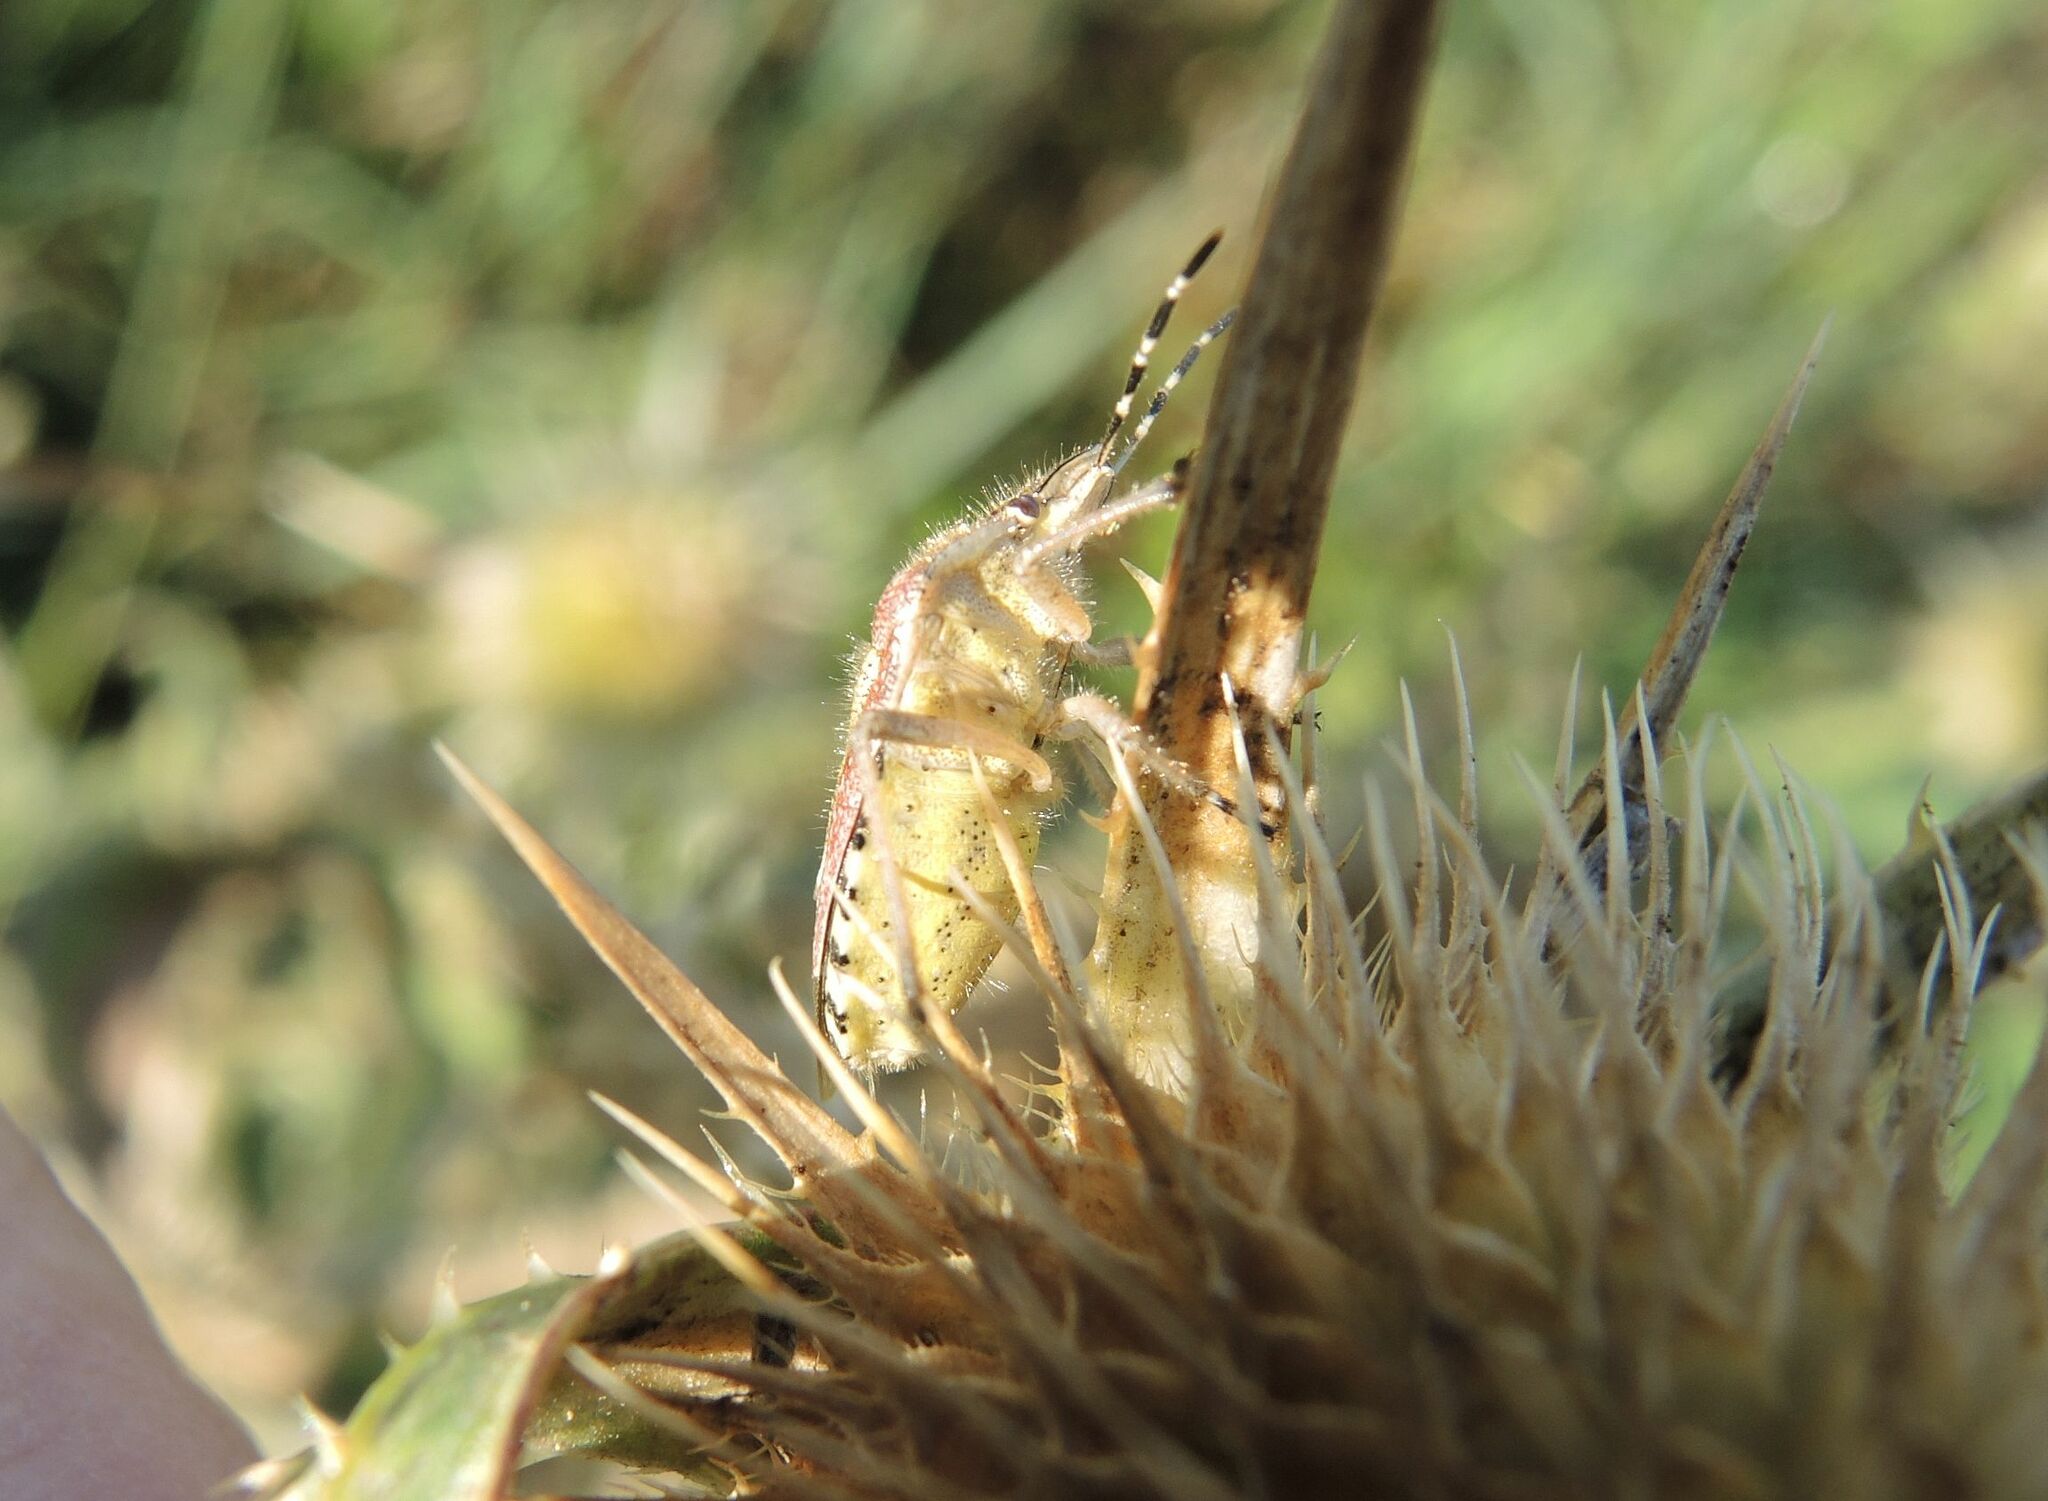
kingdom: Animalia
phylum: Arthropoda
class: Insecta
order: Hemiptera
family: Pentatomidae
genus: Dolycoris
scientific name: Dolycoris baccarum
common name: Sloe bug
